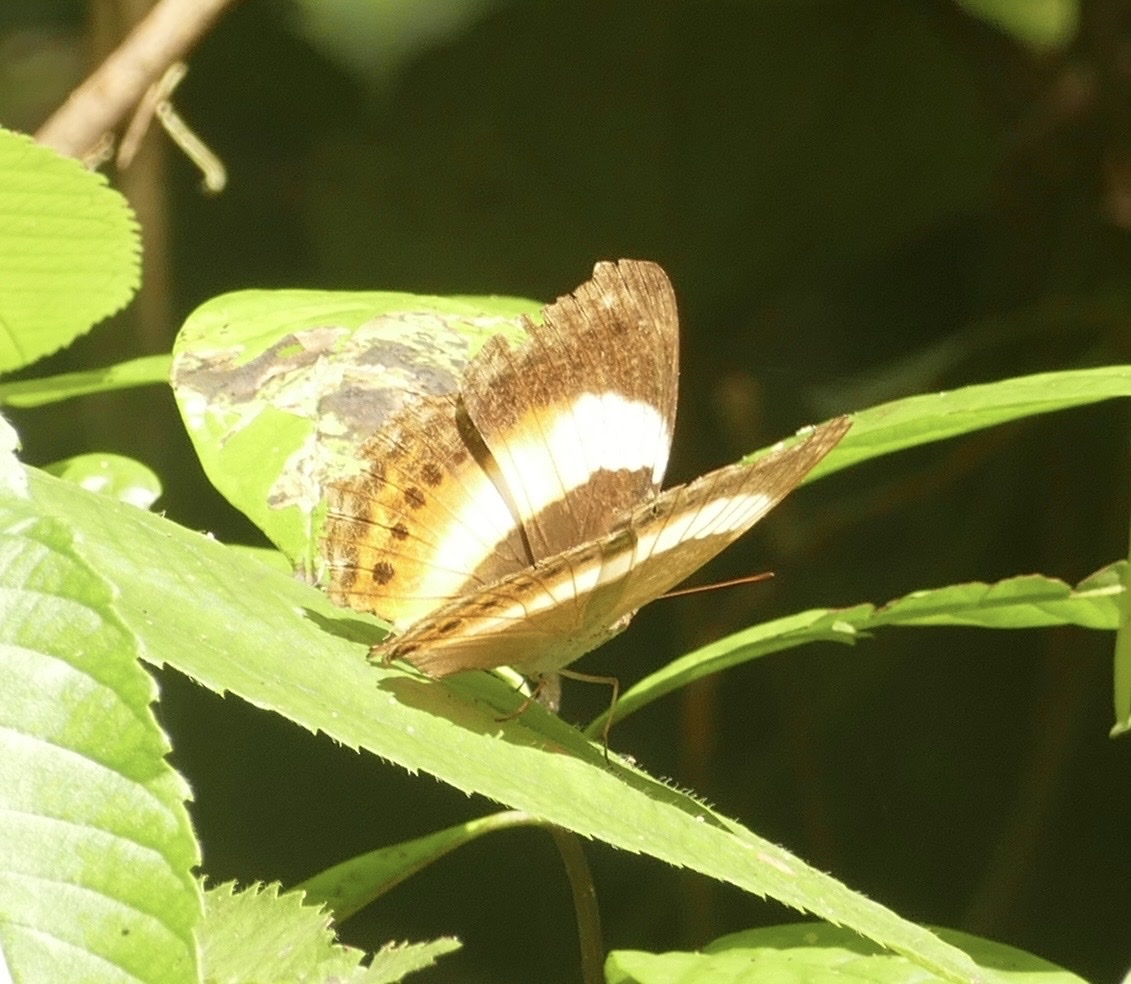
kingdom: Animalia
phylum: Arthropoda
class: Insecta
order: Lepidoptera
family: Nymphalidae
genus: Yoma
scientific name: Yoma algina
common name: New guinea lurcher
